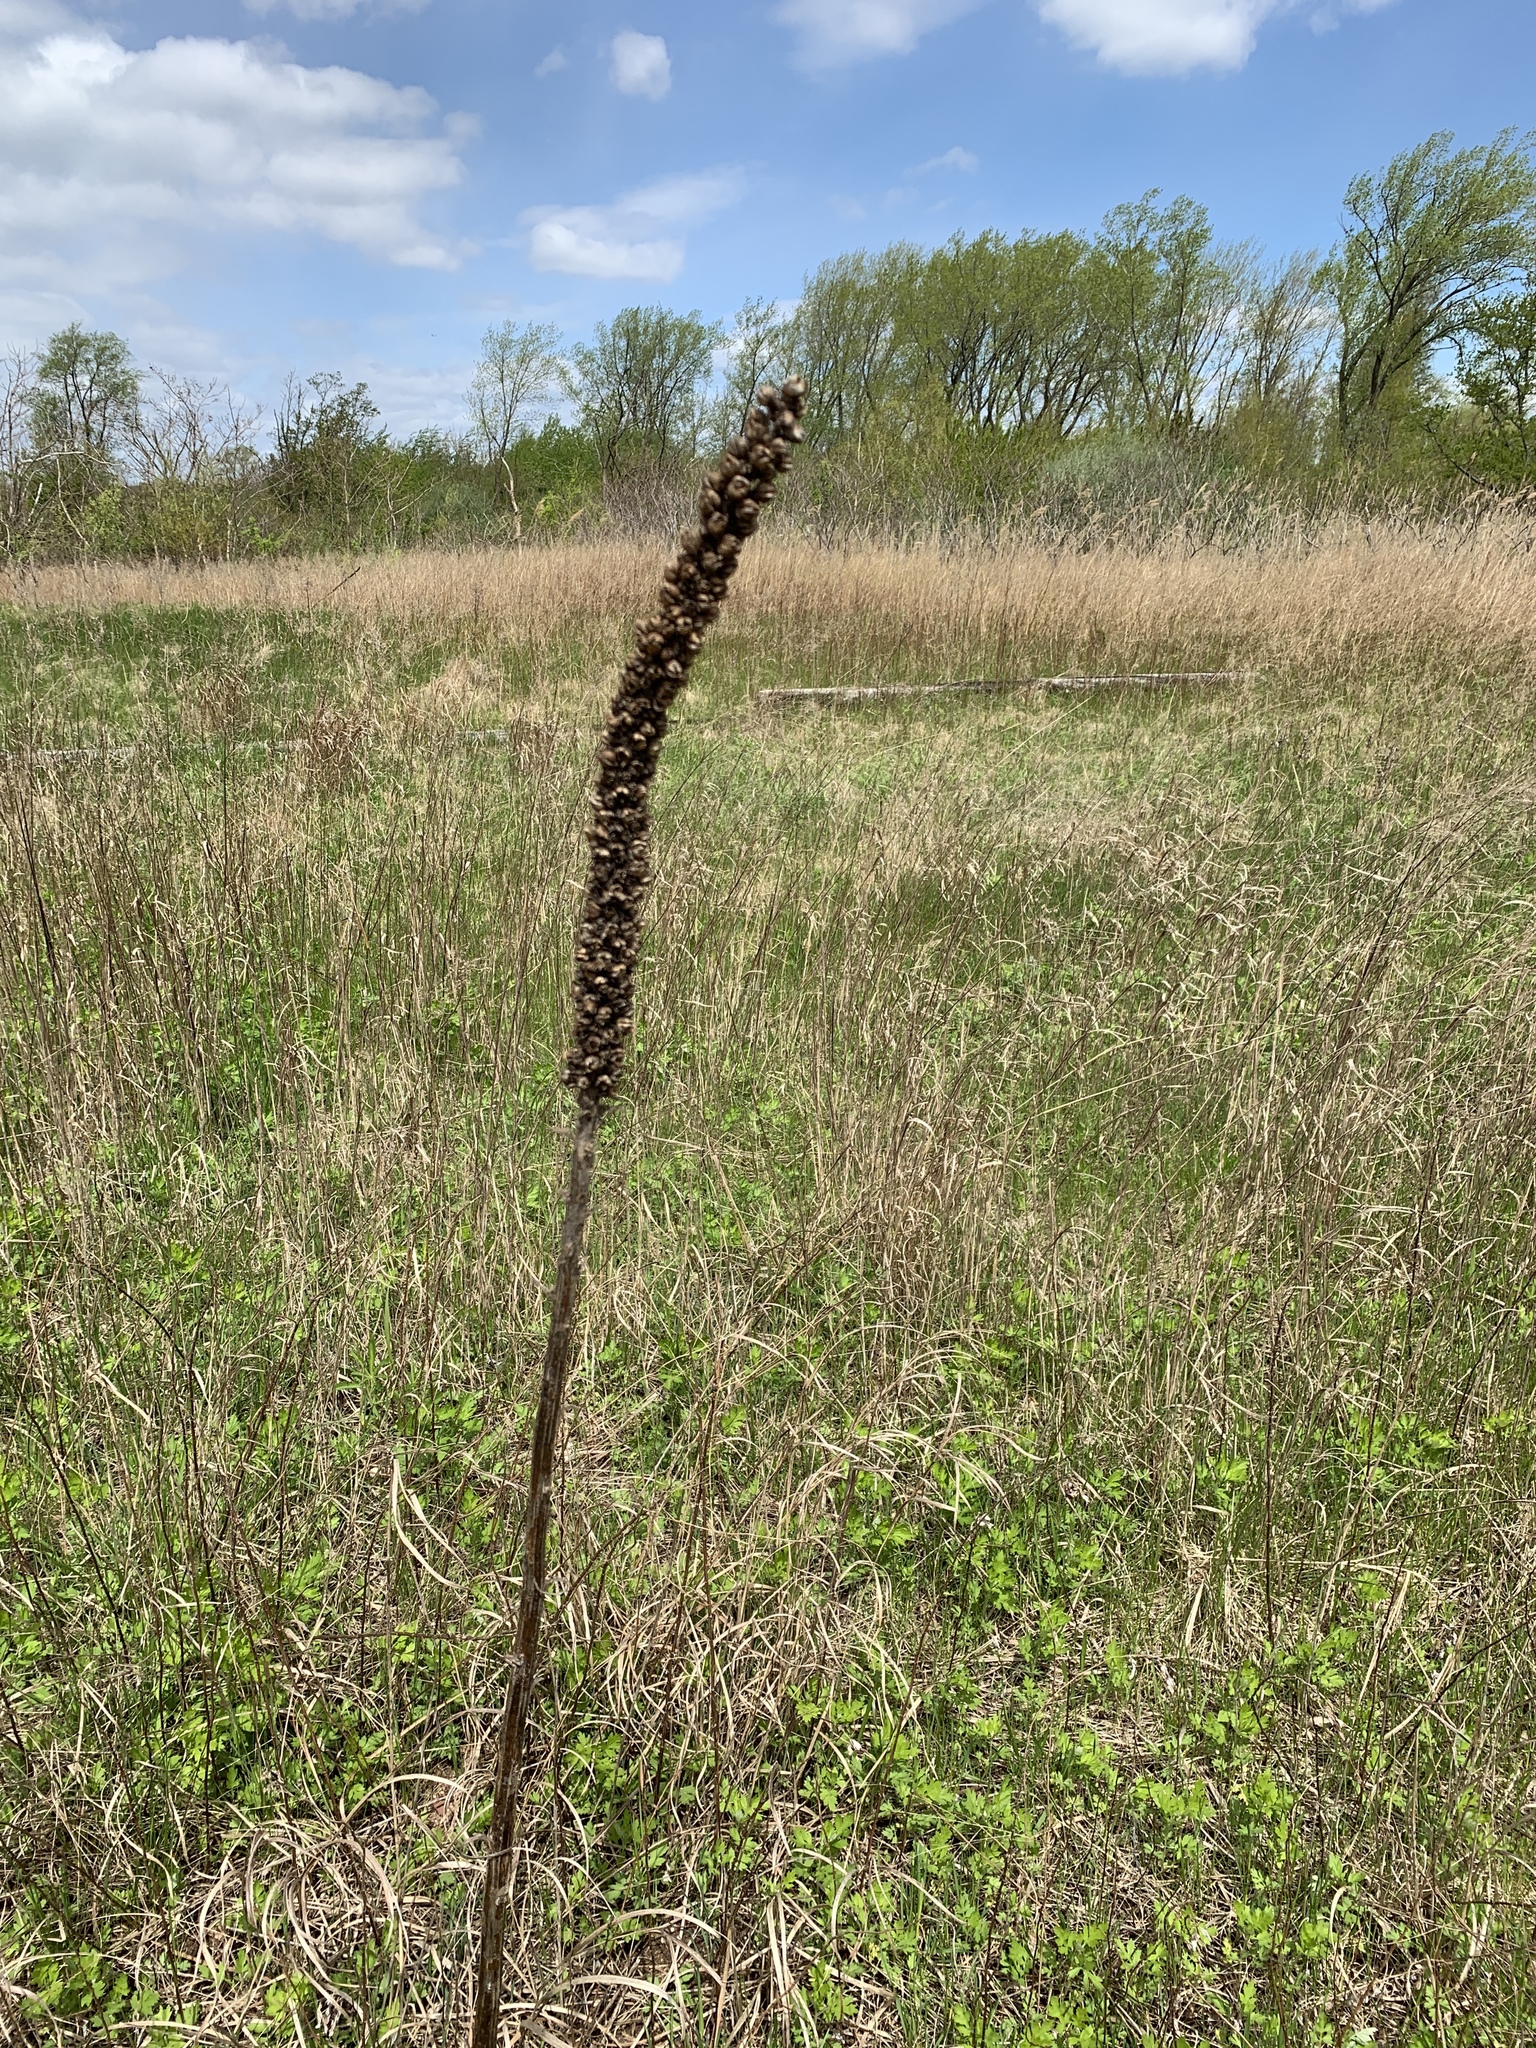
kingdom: Plantae
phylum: Tracheophyta
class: Magnoliopsida
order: Lamiales
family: Scrophulariaceae
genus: Verbascum
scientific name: Verbascum thapsus
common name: Common mullein
